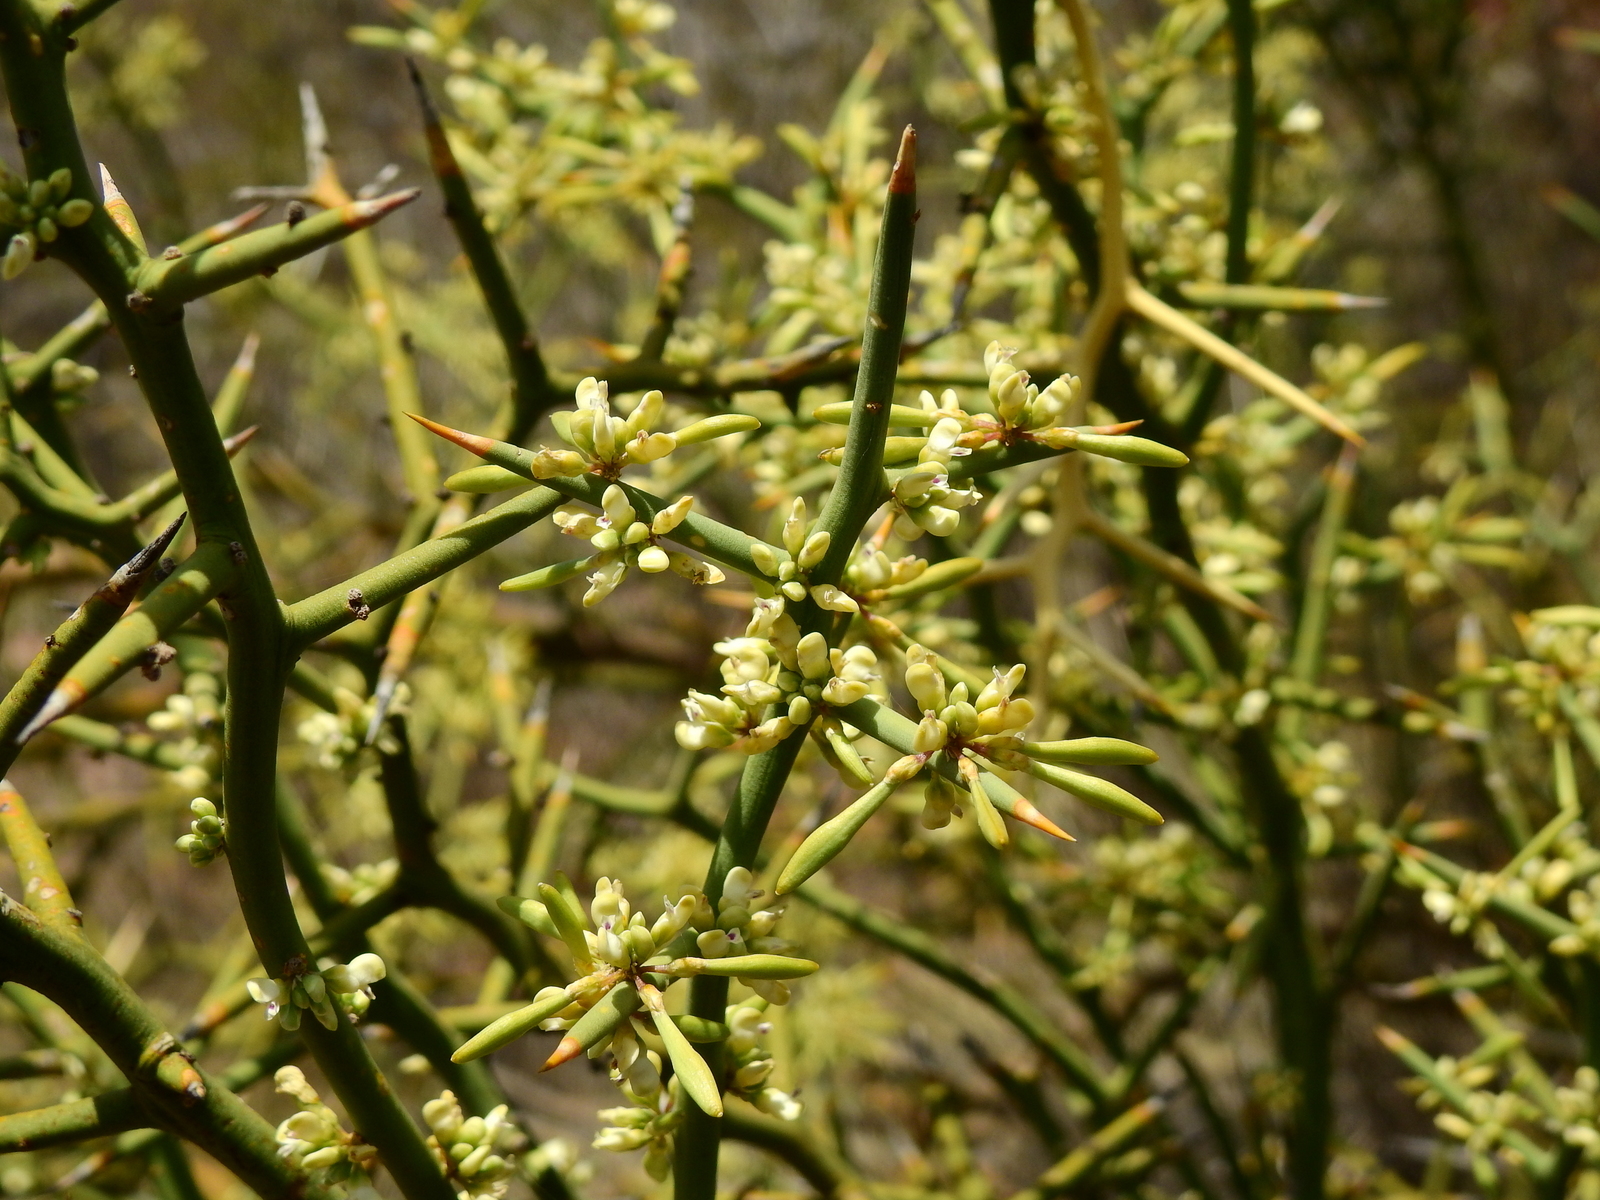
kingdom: Plantae
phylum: Tracheophyta
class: Magnoliopsida
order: Fabales
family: Polygalaceae
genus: Bredemeyera
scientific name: Bredemeyera colletioides
